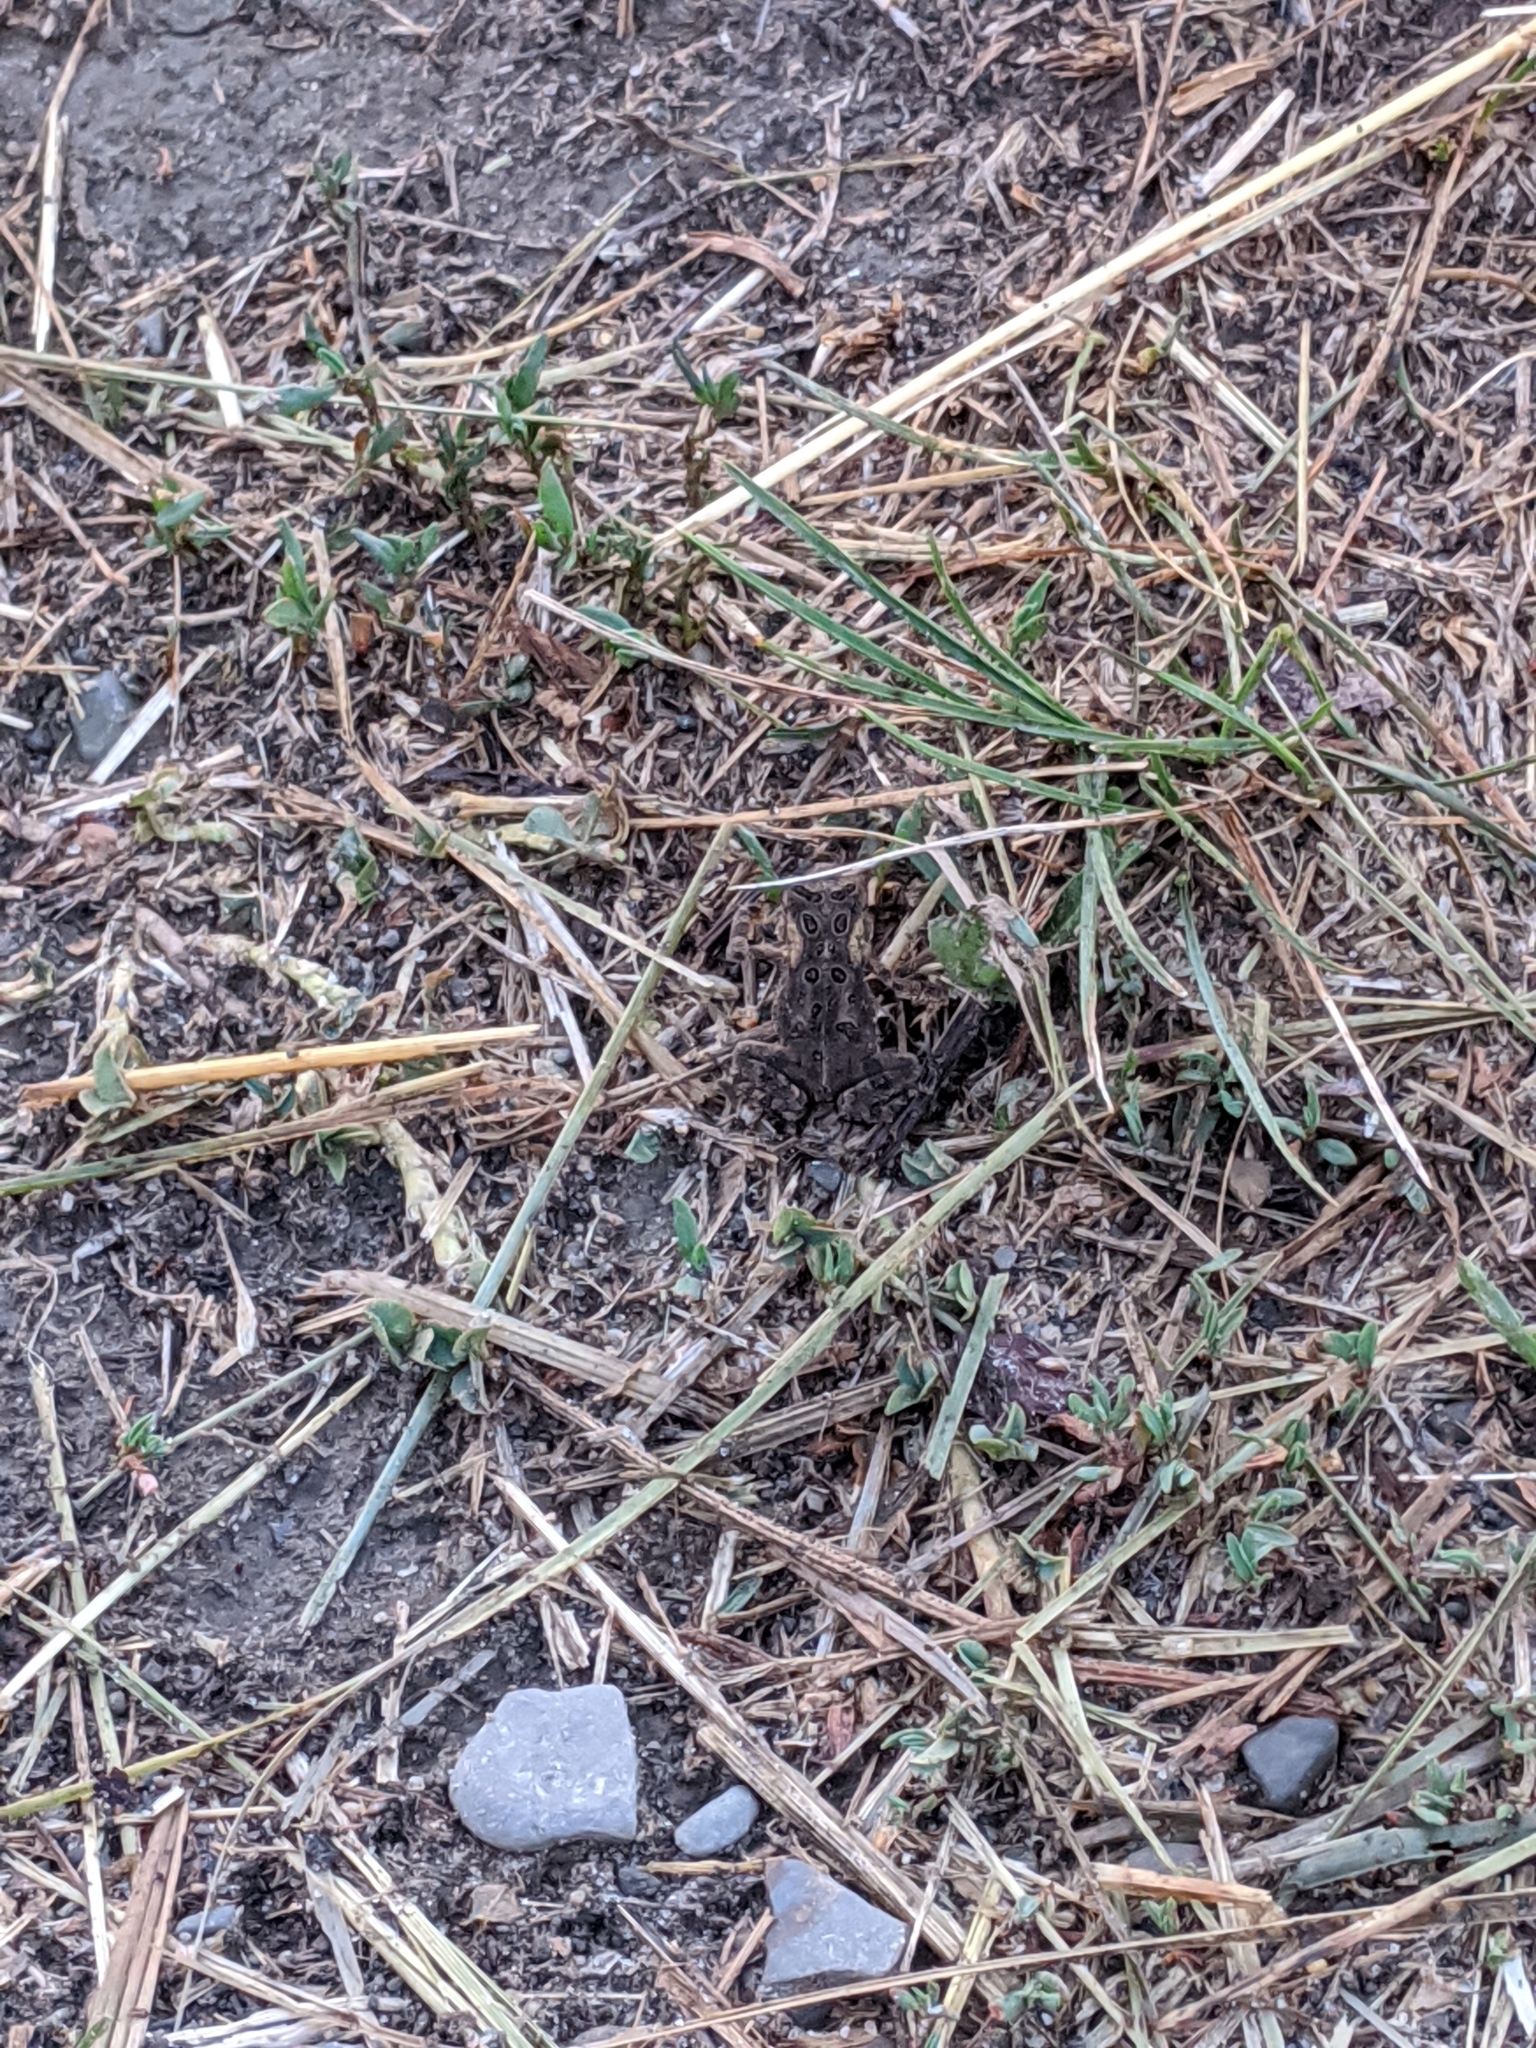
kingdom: Animalia
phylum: Chordata
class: Amphibia
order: Anura
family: Bufonidae
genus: Anaxyrus
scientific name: Anaxyrus americanus
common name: American toad
